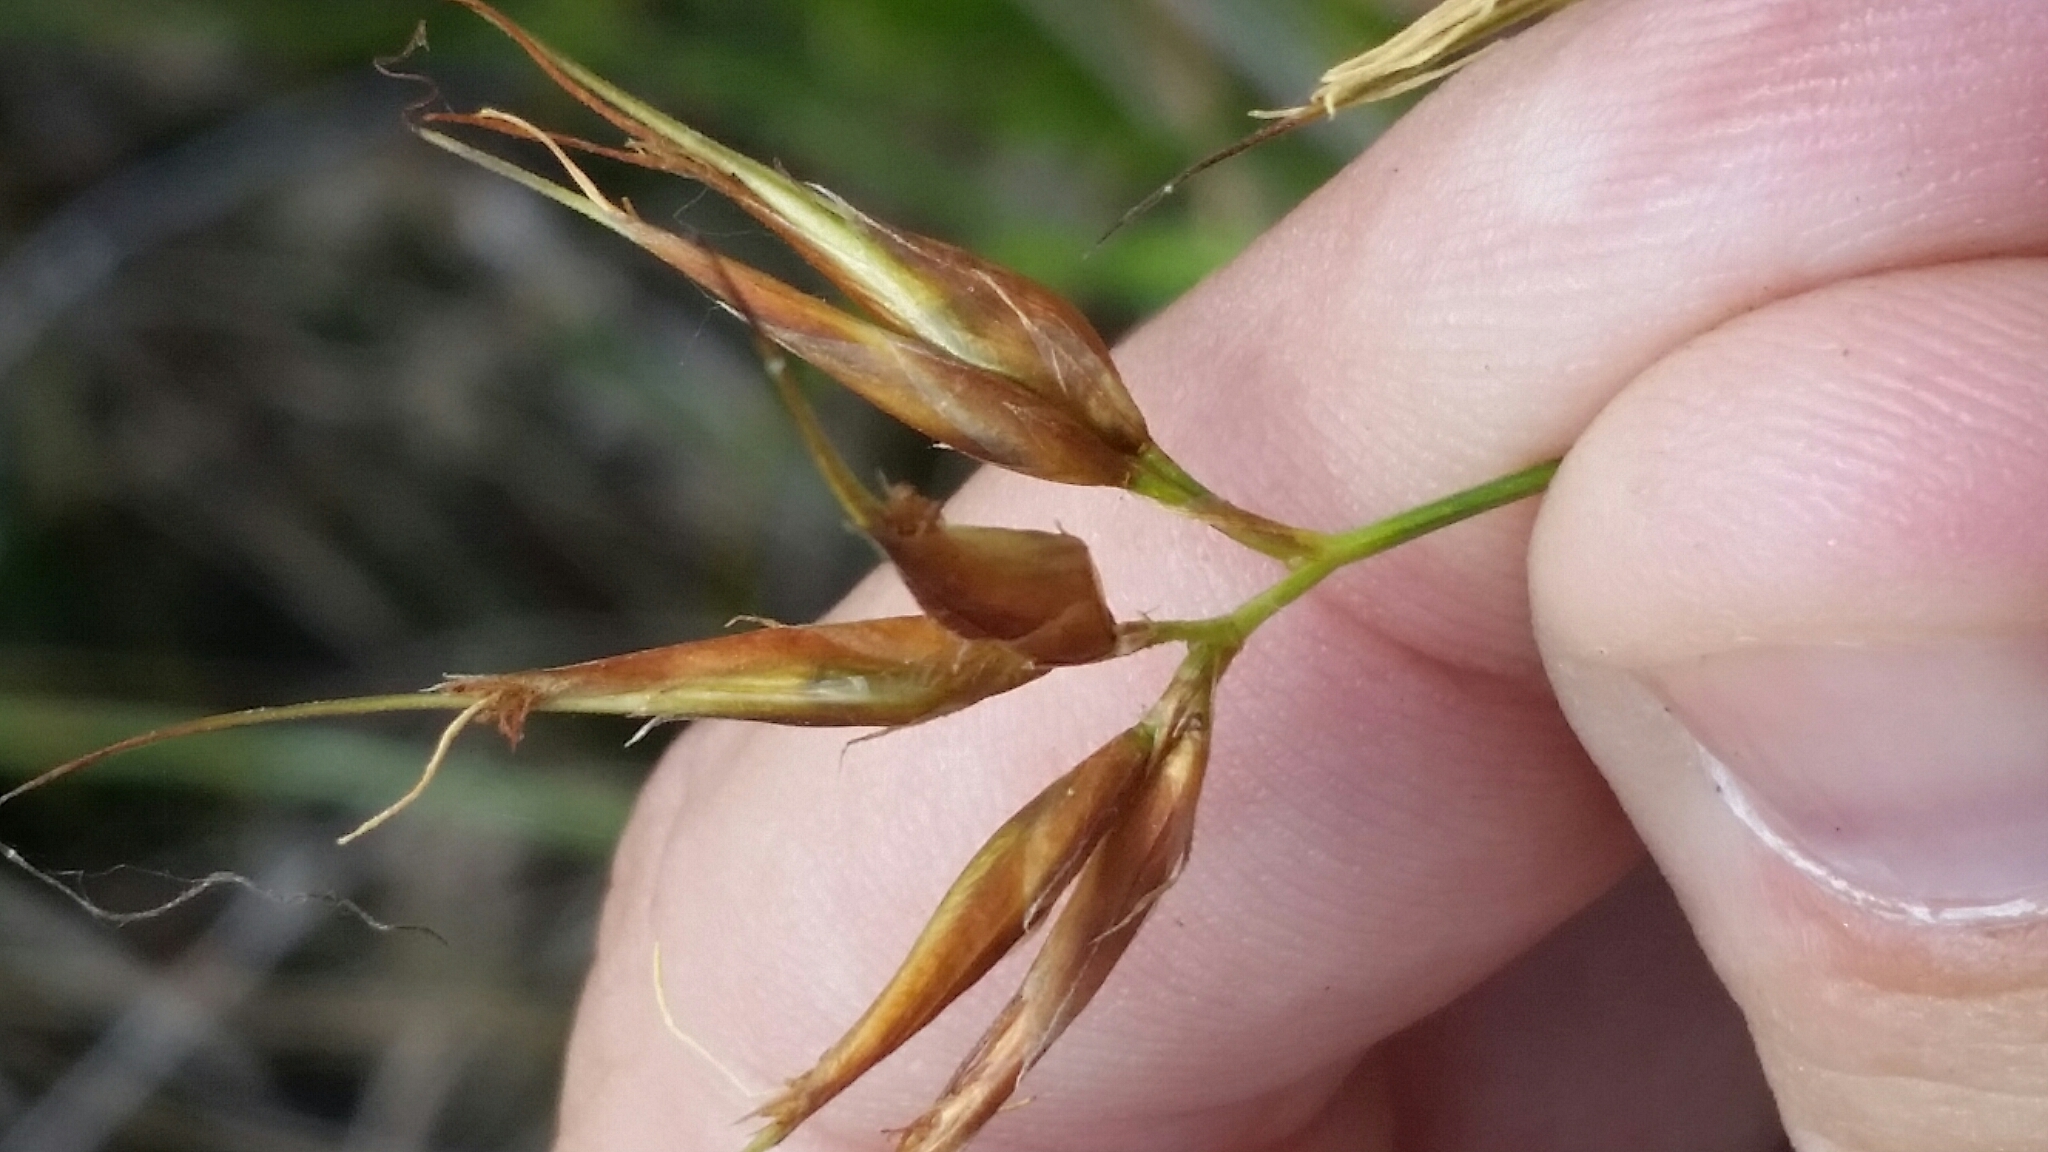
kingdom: Plantae
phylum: Tracheophyta
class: Liliopsida
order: Poales
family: Cyperaceae
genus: Rhynchospora
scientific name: Rhynchospora inundata
